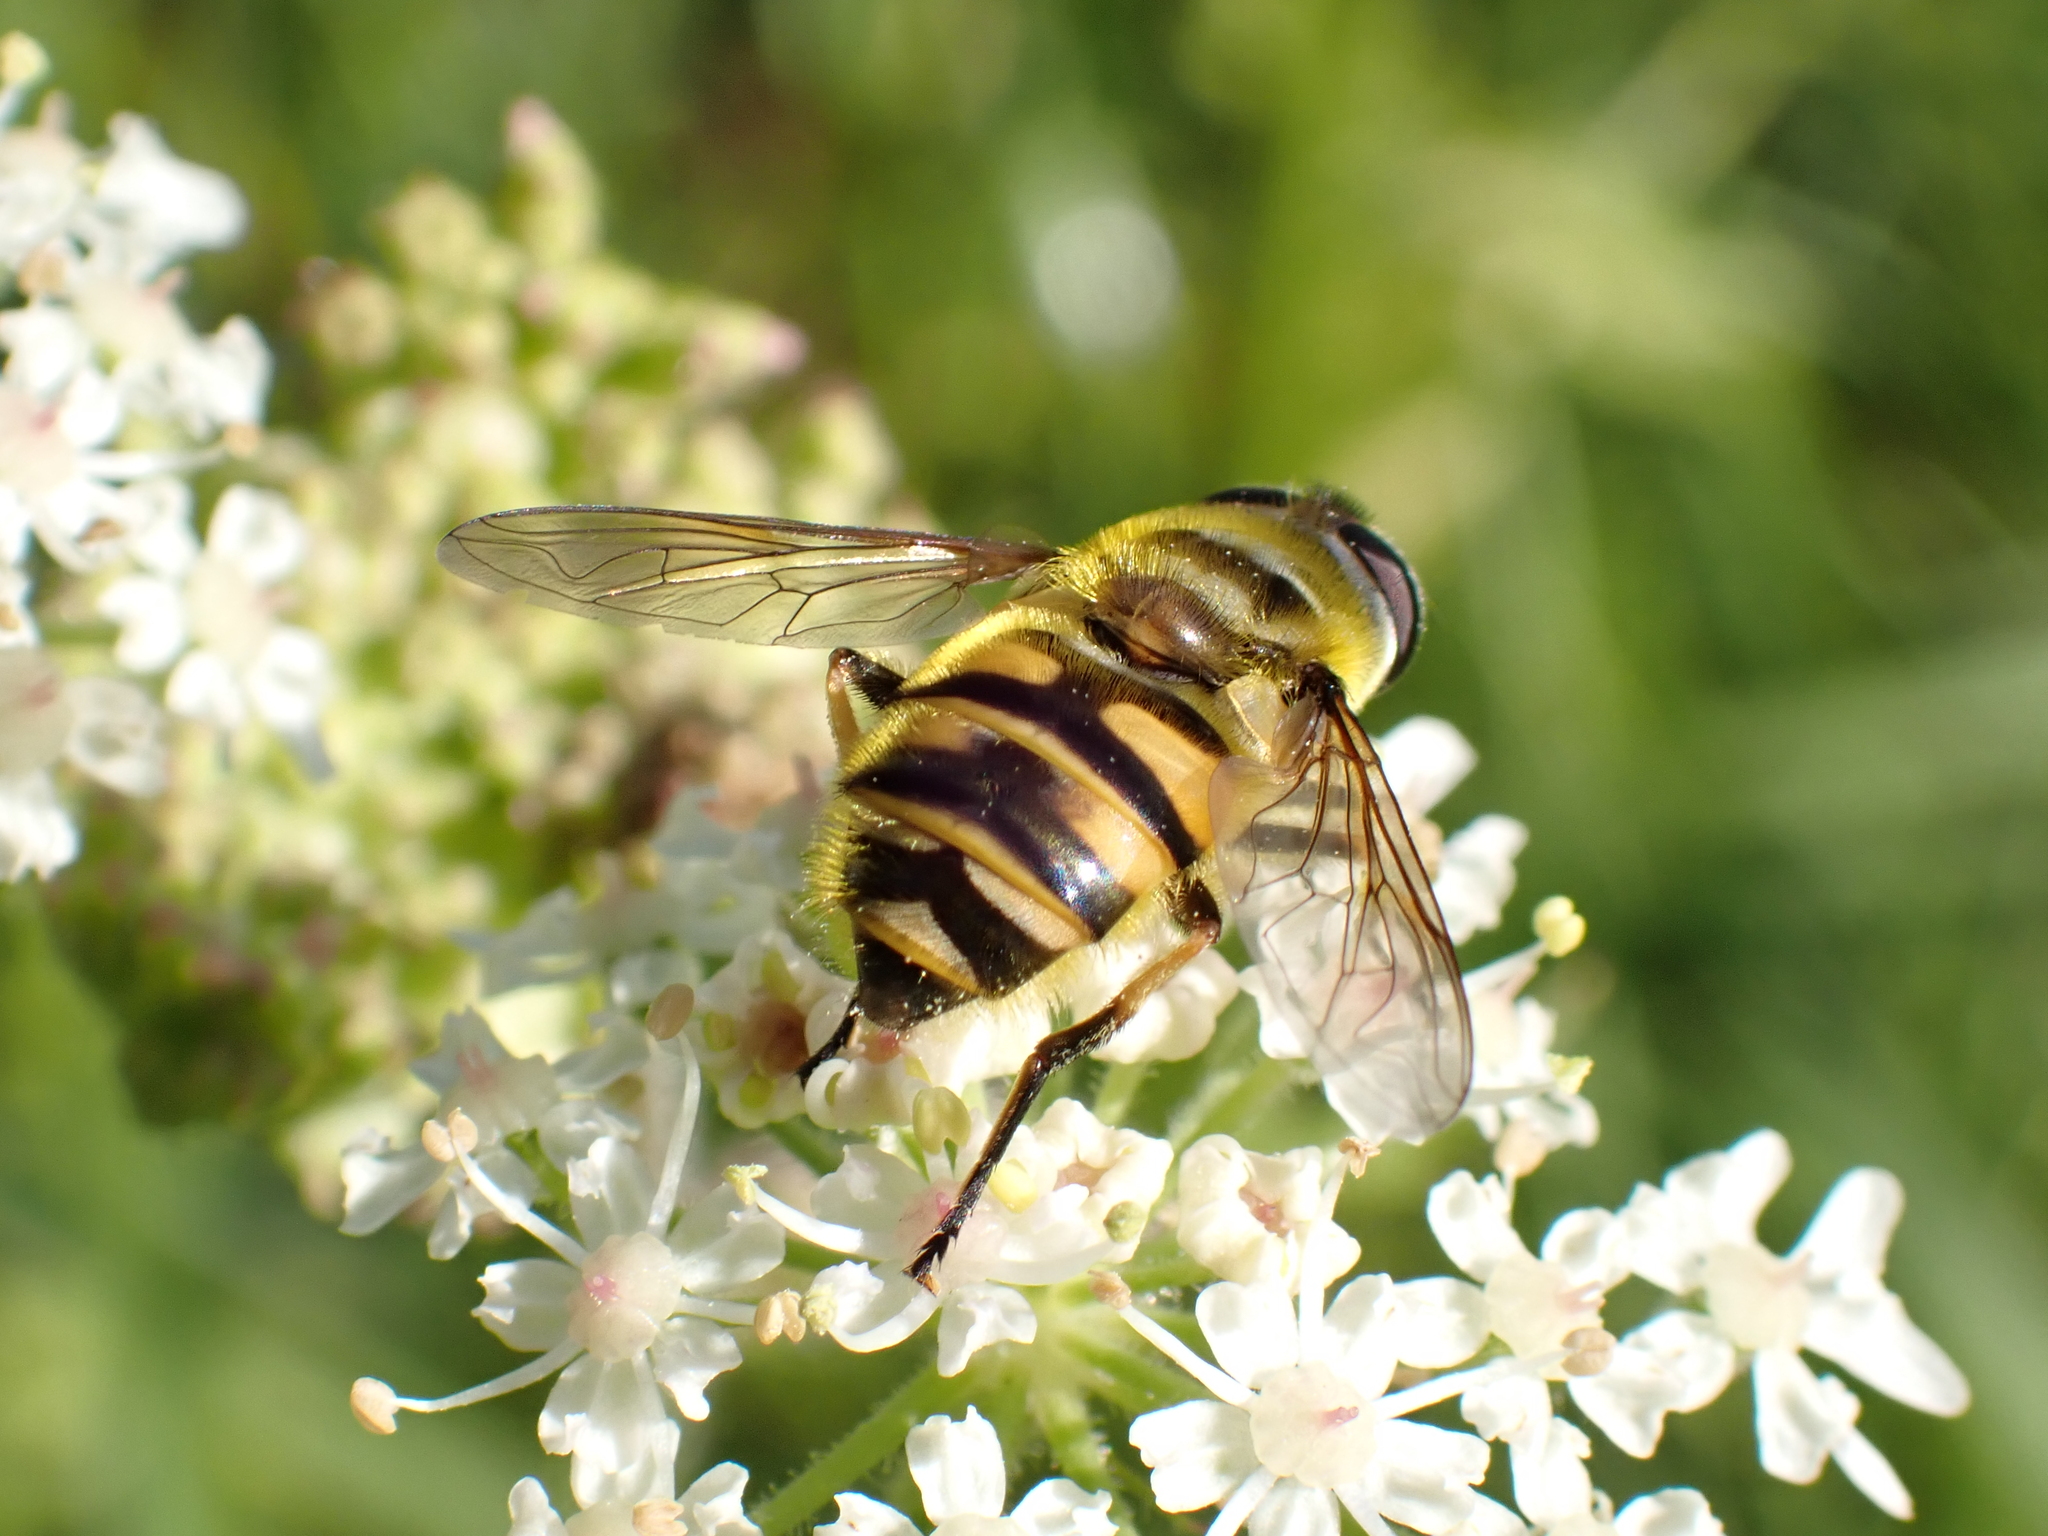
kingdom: Animalia
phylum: Arthropoda
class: Insecta
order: Diptera
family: Syrphidae
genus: Myathropa
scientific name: Myathropa florea
